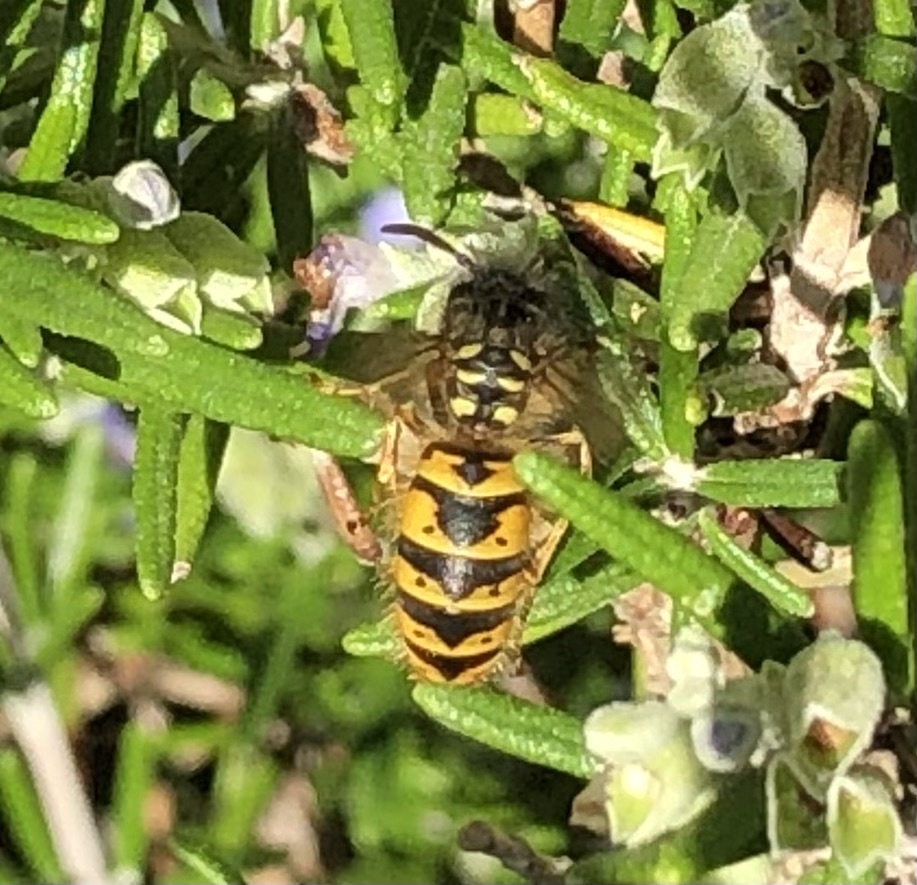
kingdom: Animalia
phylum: Arthropoda
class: Insecta
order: Hymenoptera
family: Vespidae
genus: Vespula
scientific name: Vespula vulgaris
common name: Common wasp
